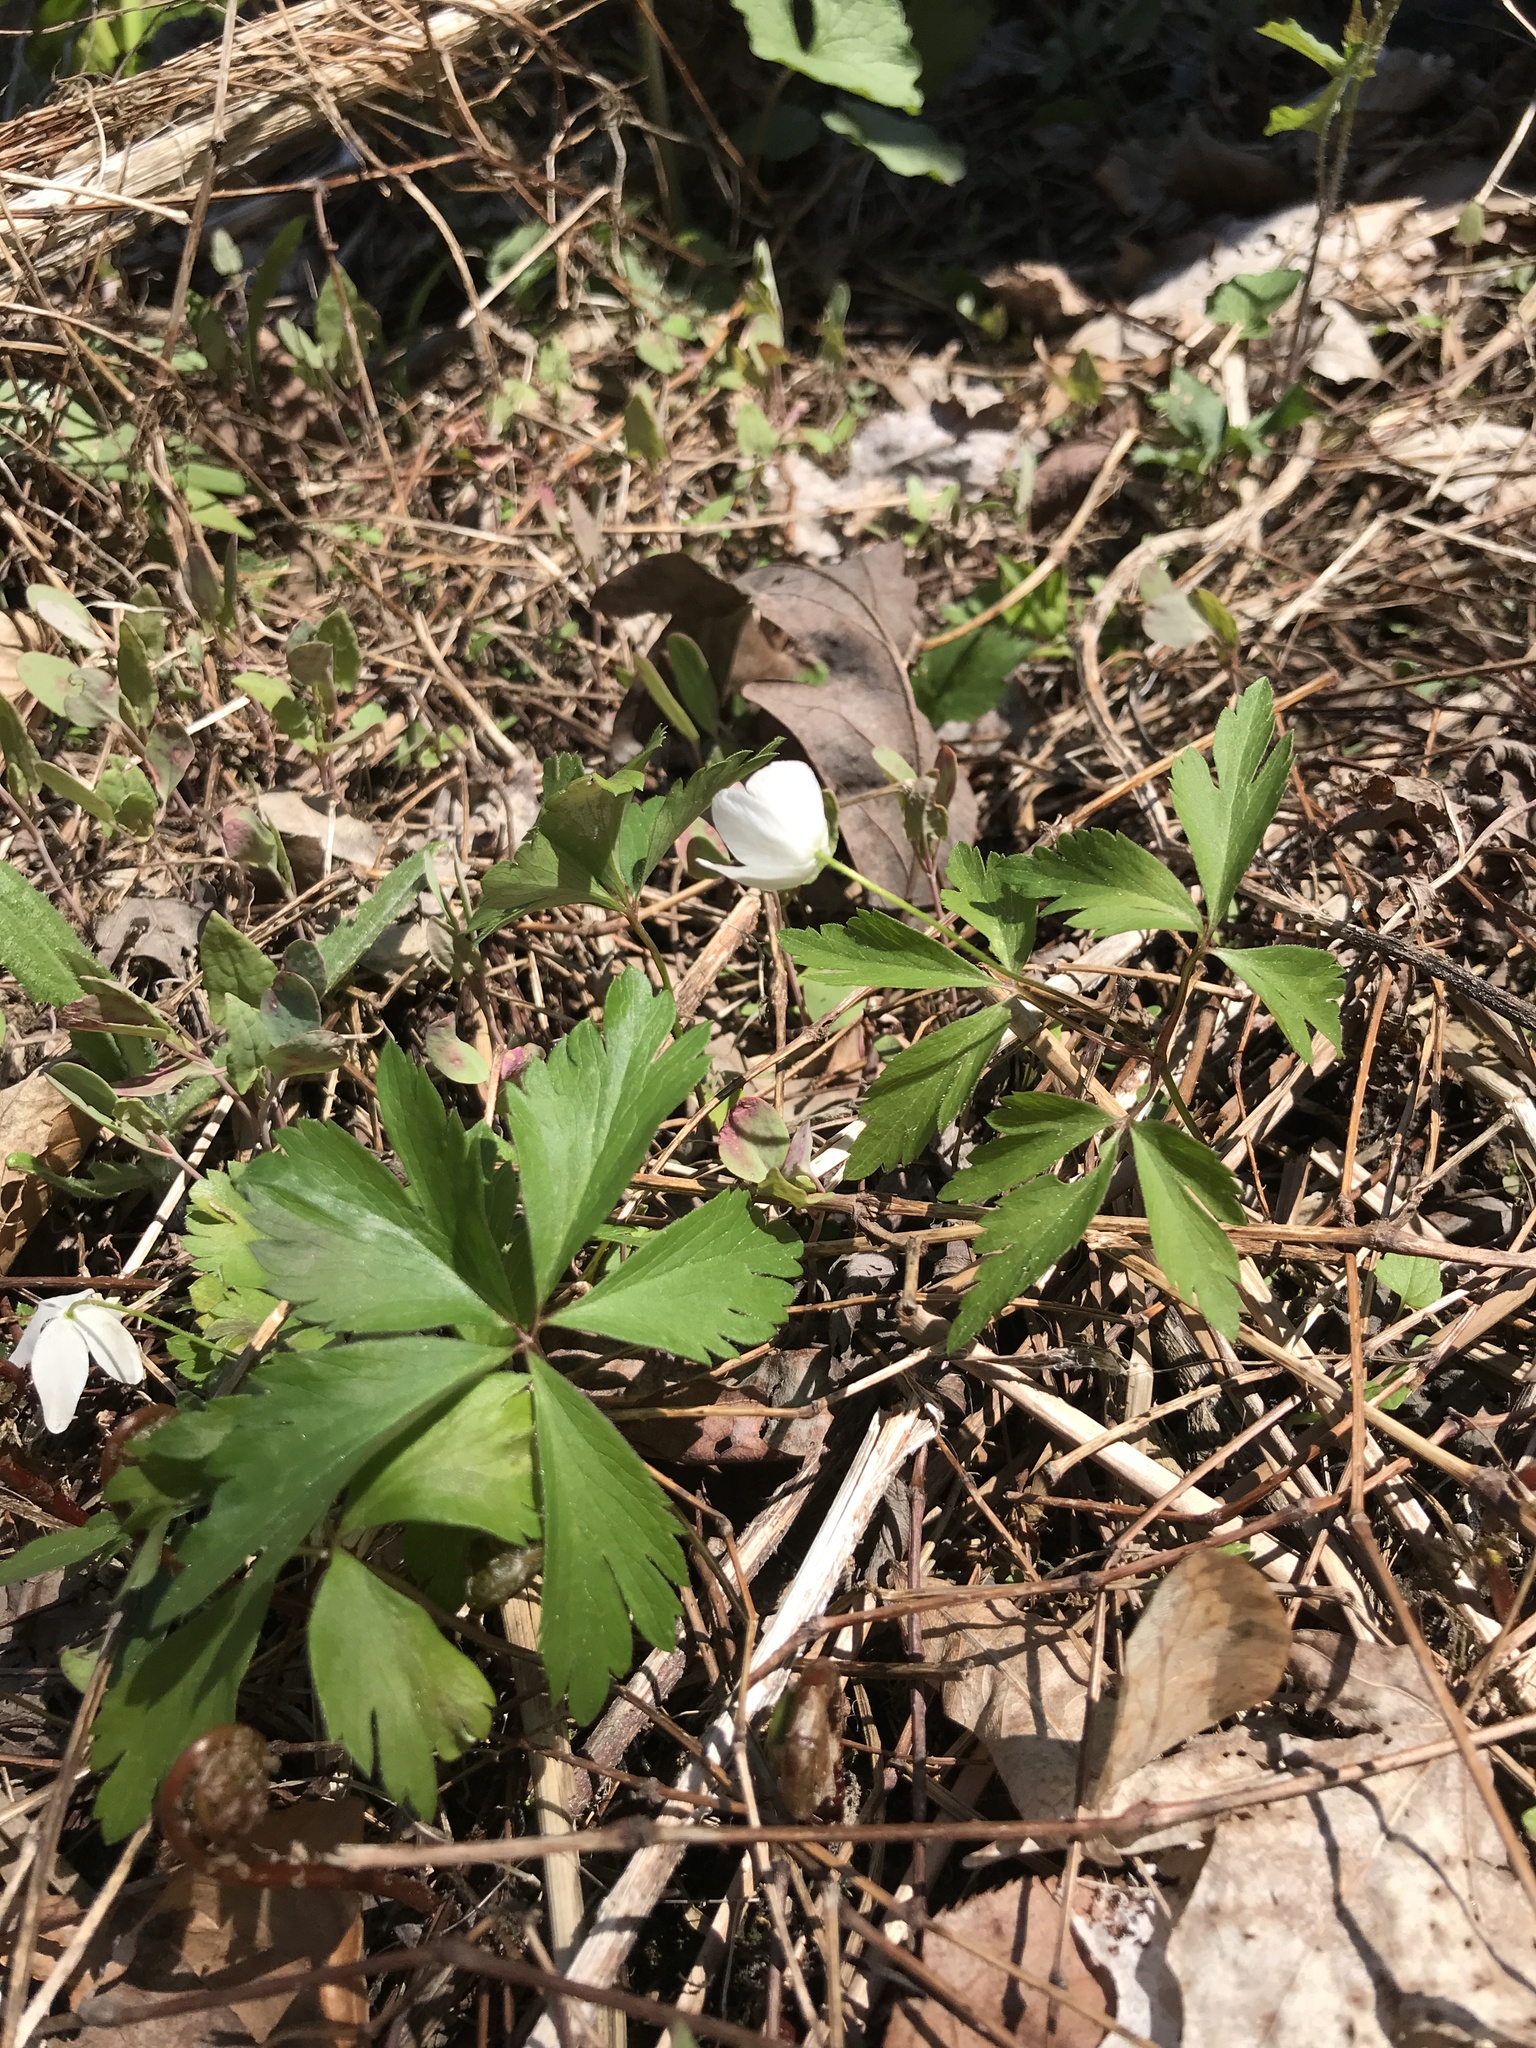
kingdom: Plantae
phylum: Tracheophyta
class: Magnoliopsida
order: Ranunculales
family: Ranunculaceae
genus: Anemone
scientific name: Anemone quinquefolia
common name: Wood anemone
